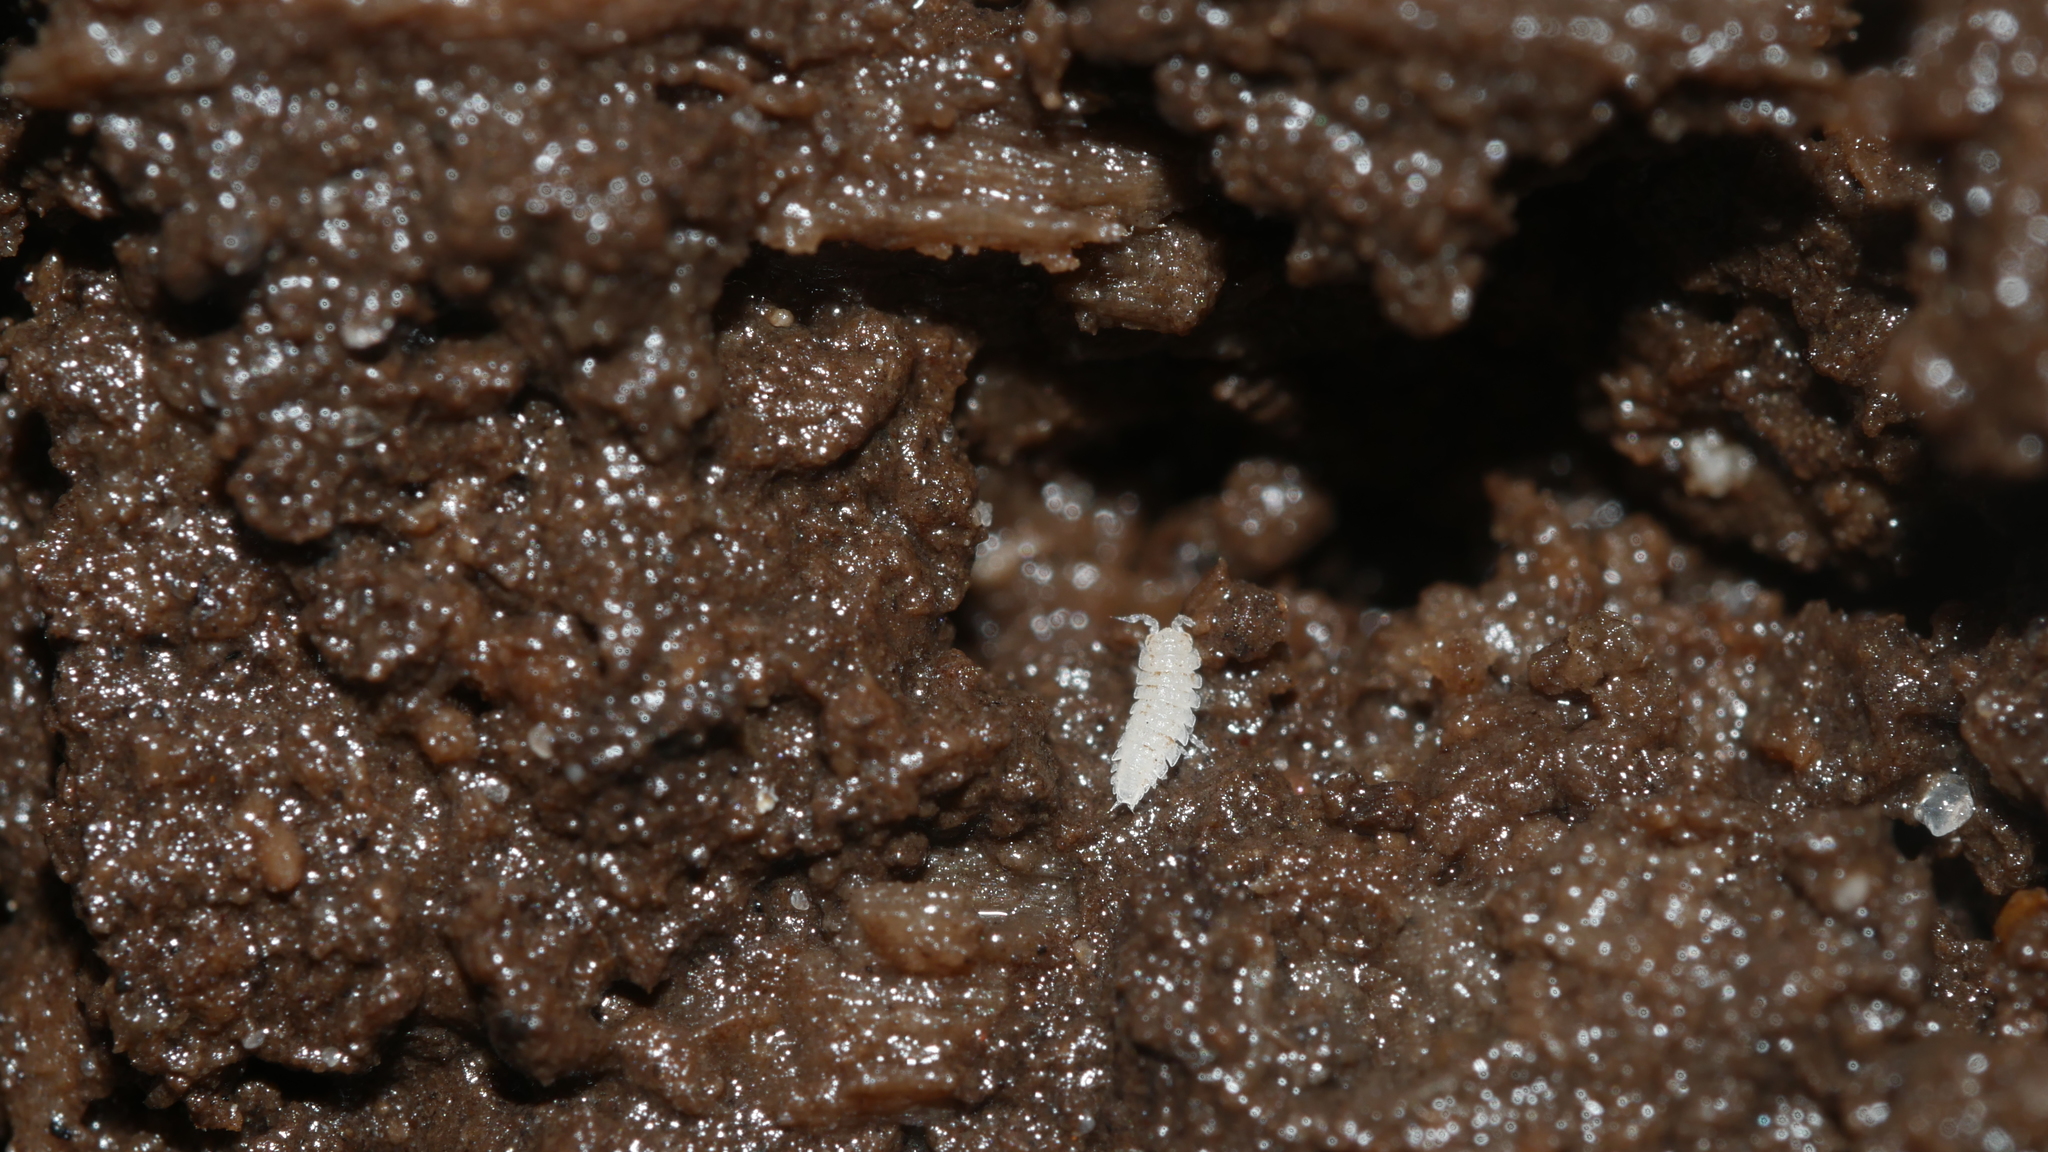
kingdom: Animalia
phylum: Arthropoda
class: Malacostraca
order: Isopoda
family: Trichoniscidae
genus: Haplophthalmus
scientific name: Haplophthalmus danicus
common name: Pillbug
